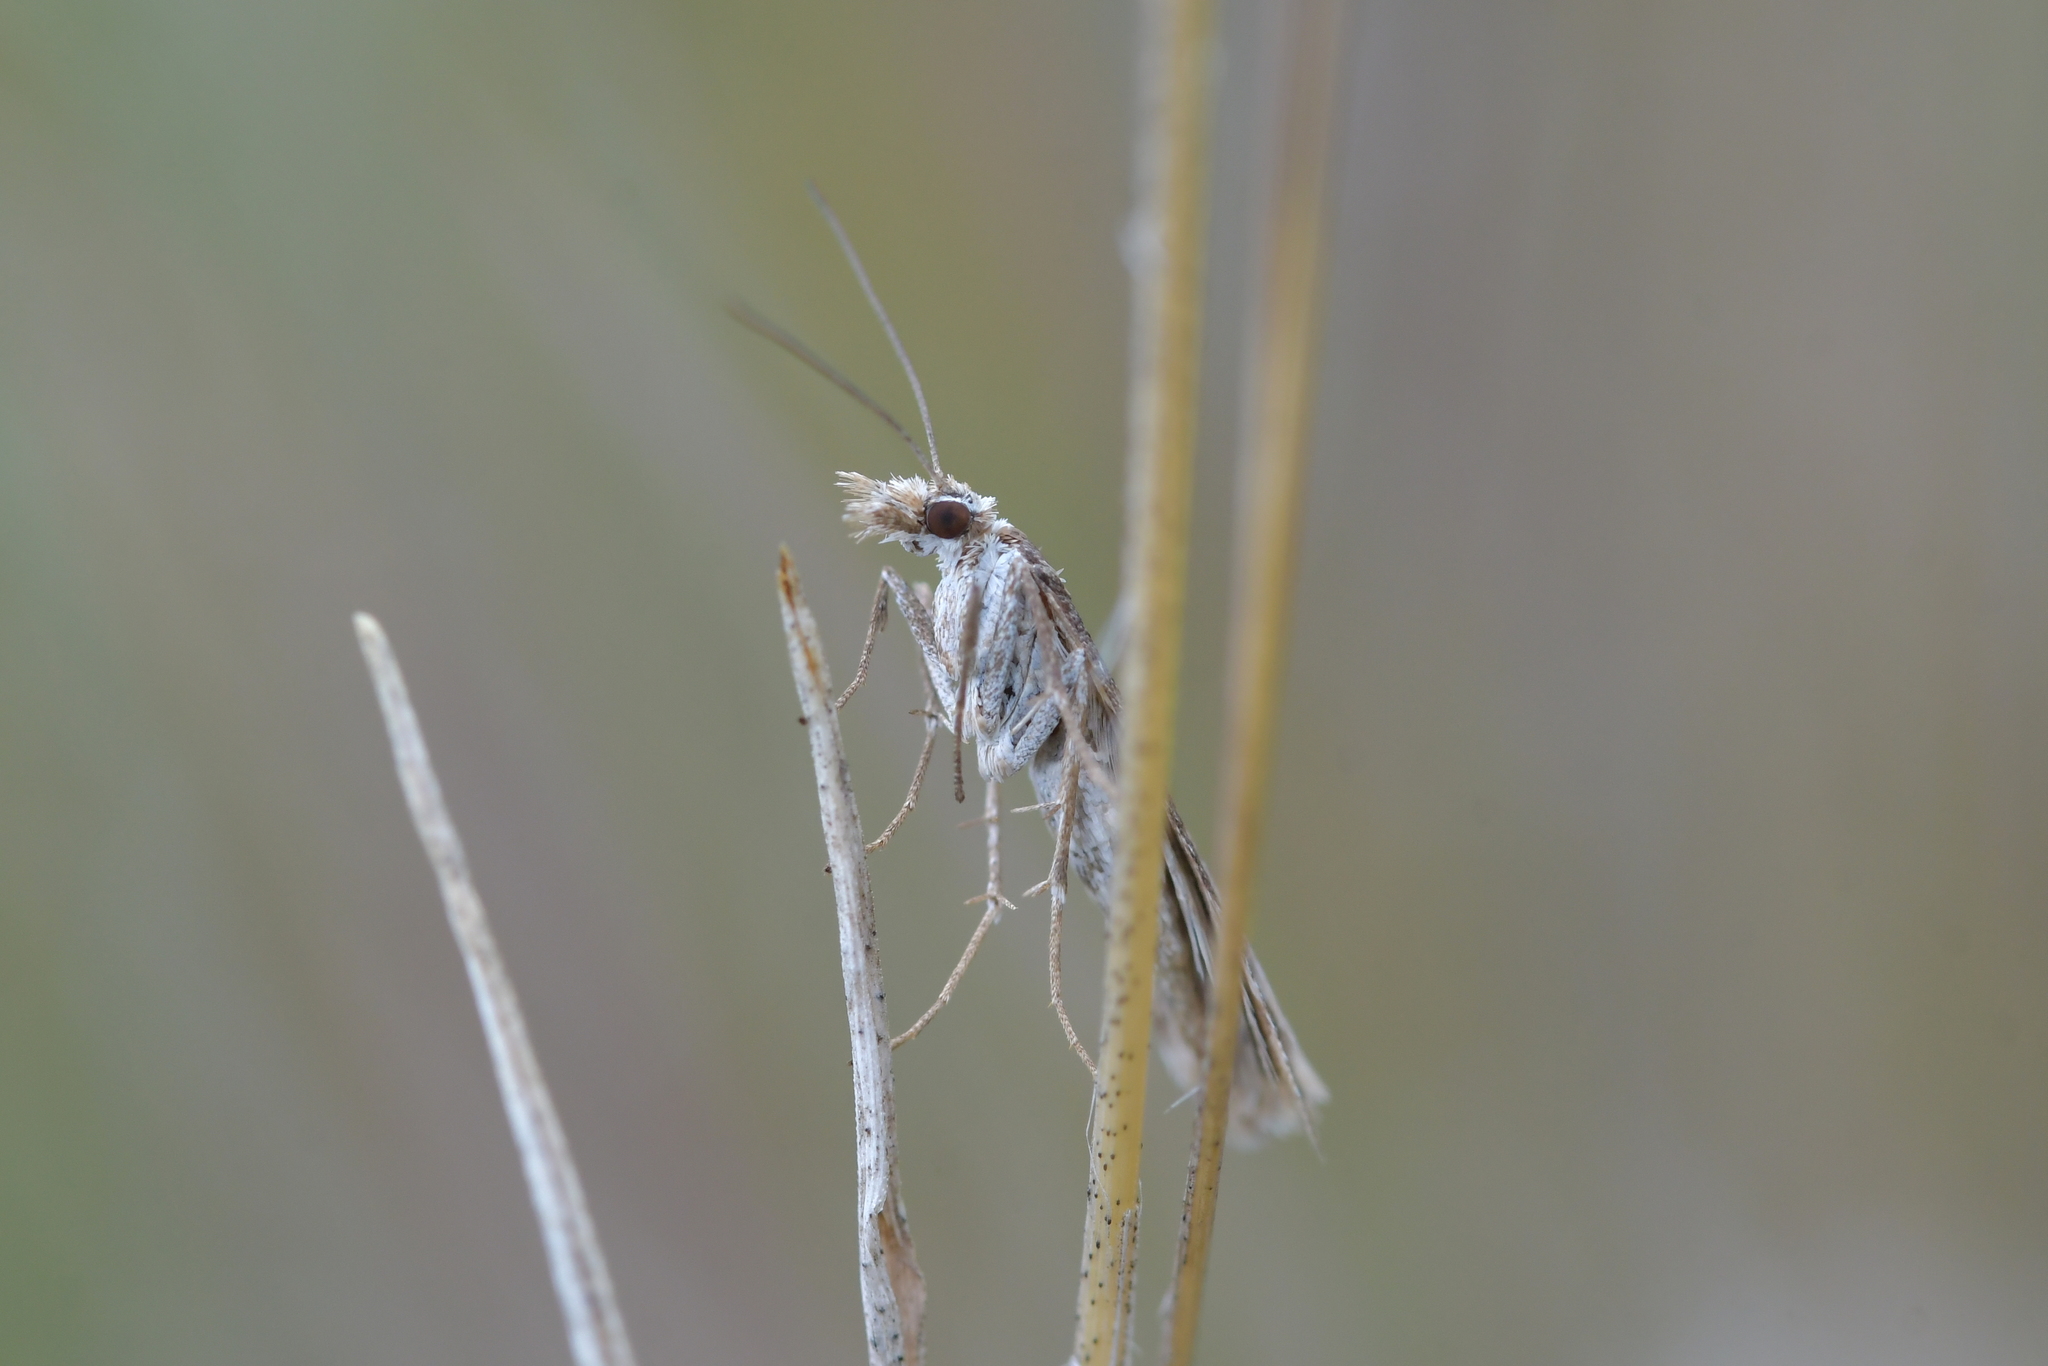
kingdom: Animalia
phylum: Arthropoda
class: Insecta
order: Lepidoptera
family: Crambidae
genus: Scoparia
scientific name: Scoparia exilis
